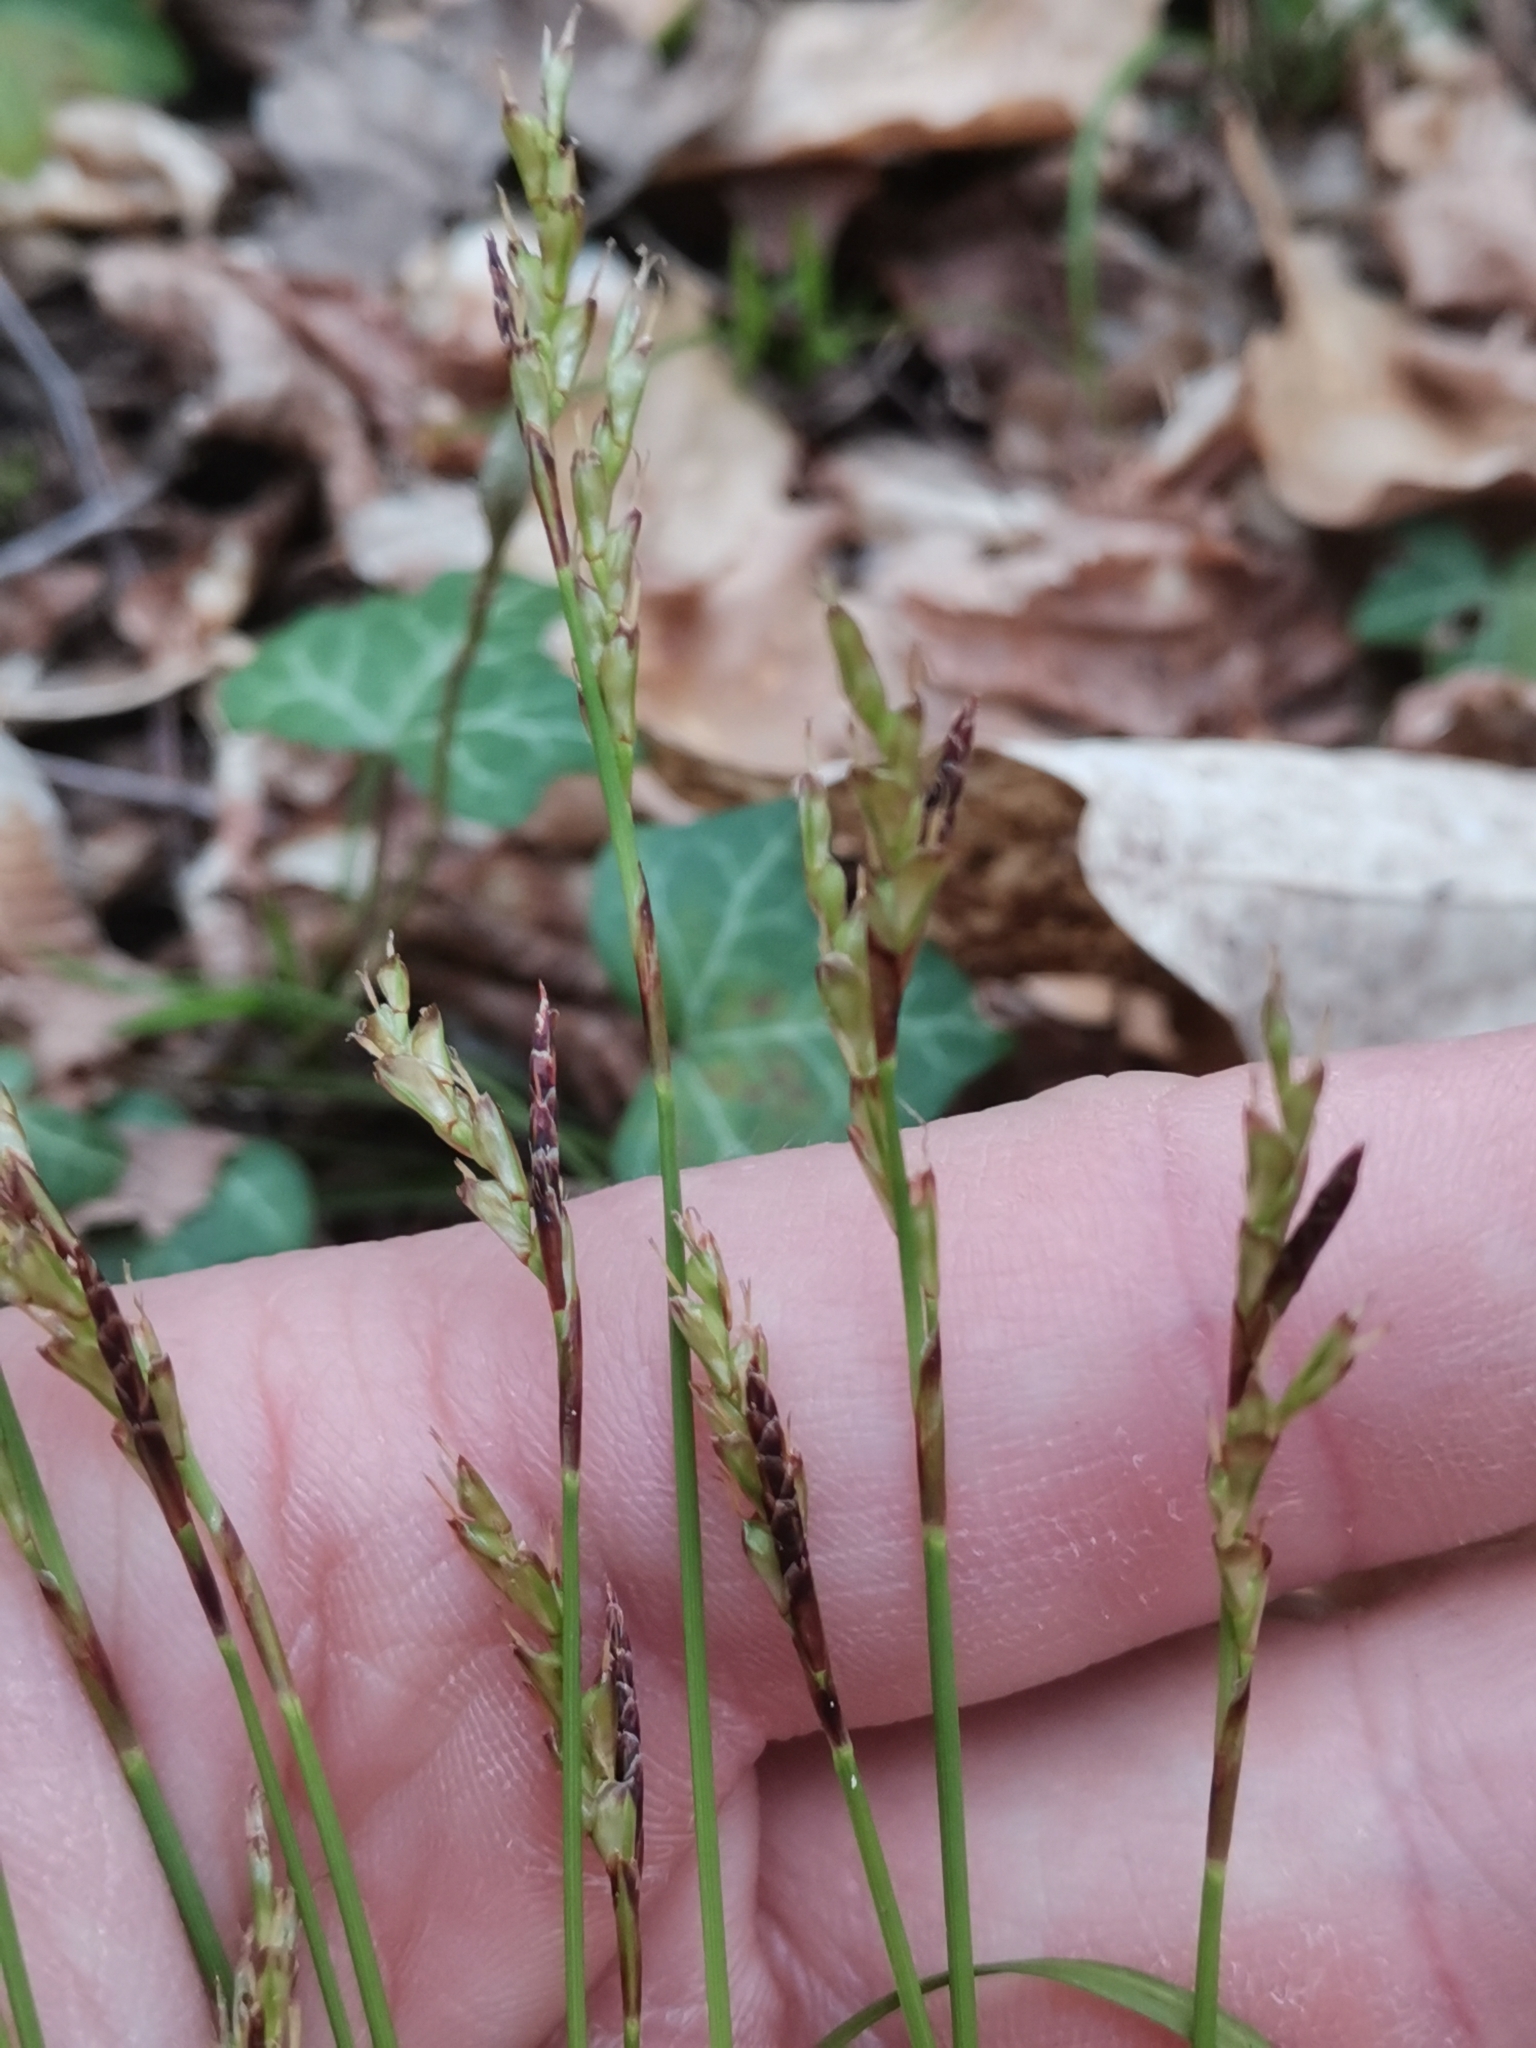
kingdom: Plantae
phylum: Tracheophyta
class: Liliopsida
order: Poales
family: Cyperaceae
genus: Carex
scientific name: Carex digitata
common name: Fingered sedge
